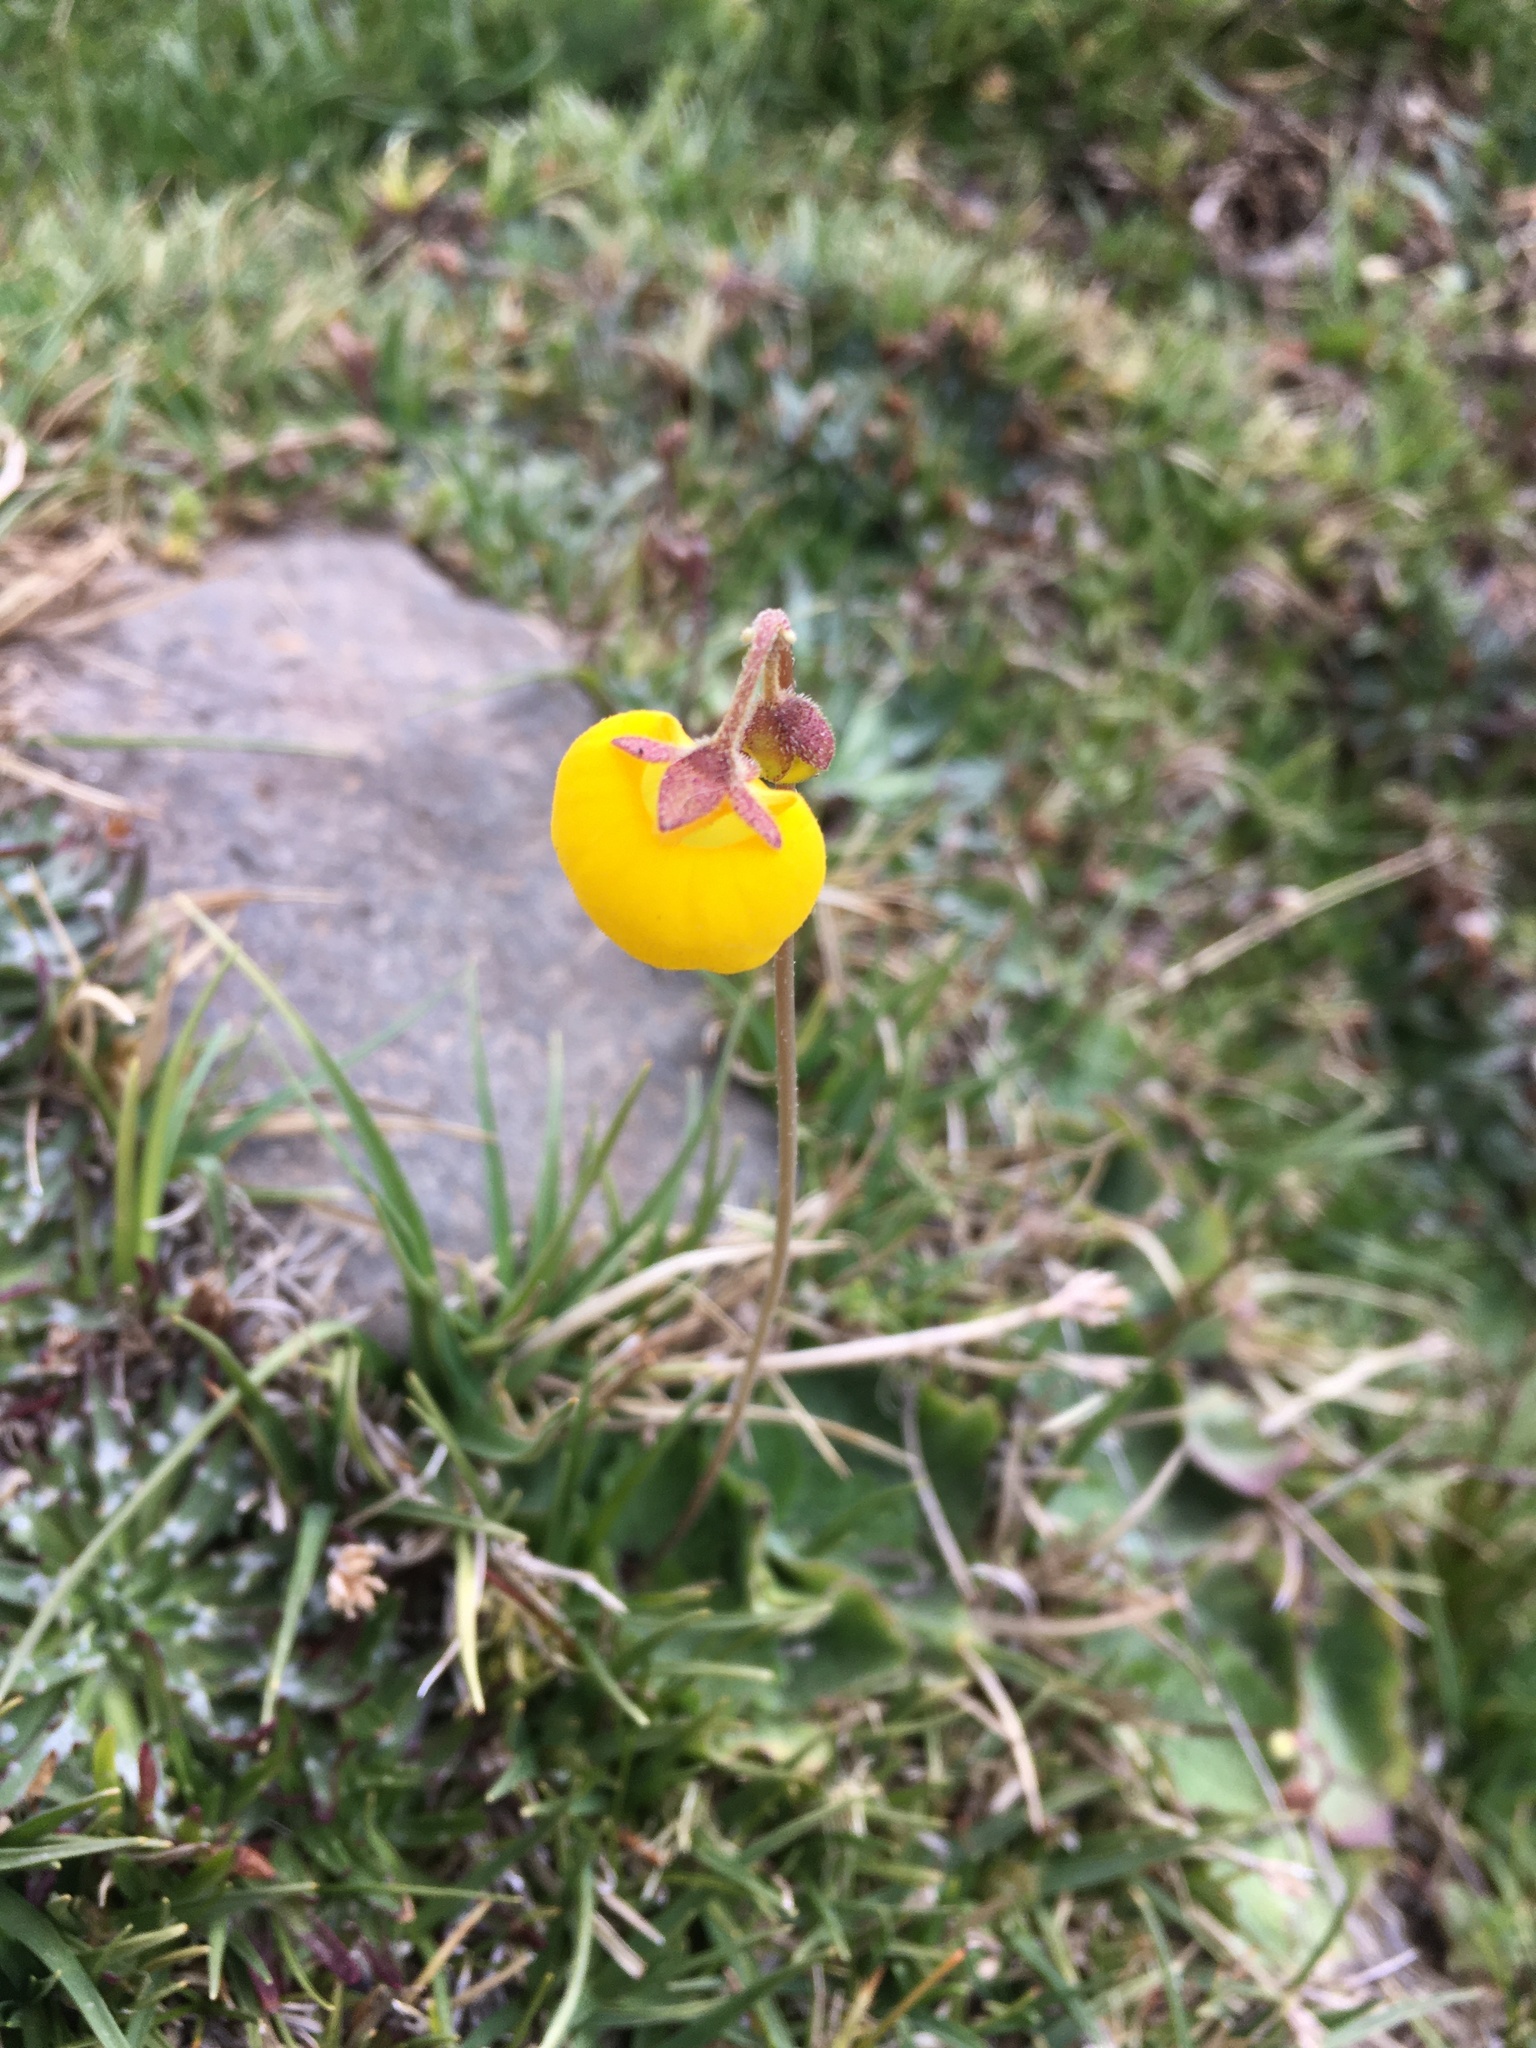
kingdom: Plantae
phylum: Tracheophyta
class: Magnoliopsida
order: Lamiales
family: Calceolariaceae
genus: Calceolaria
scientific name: Calceolaria filicaulis
